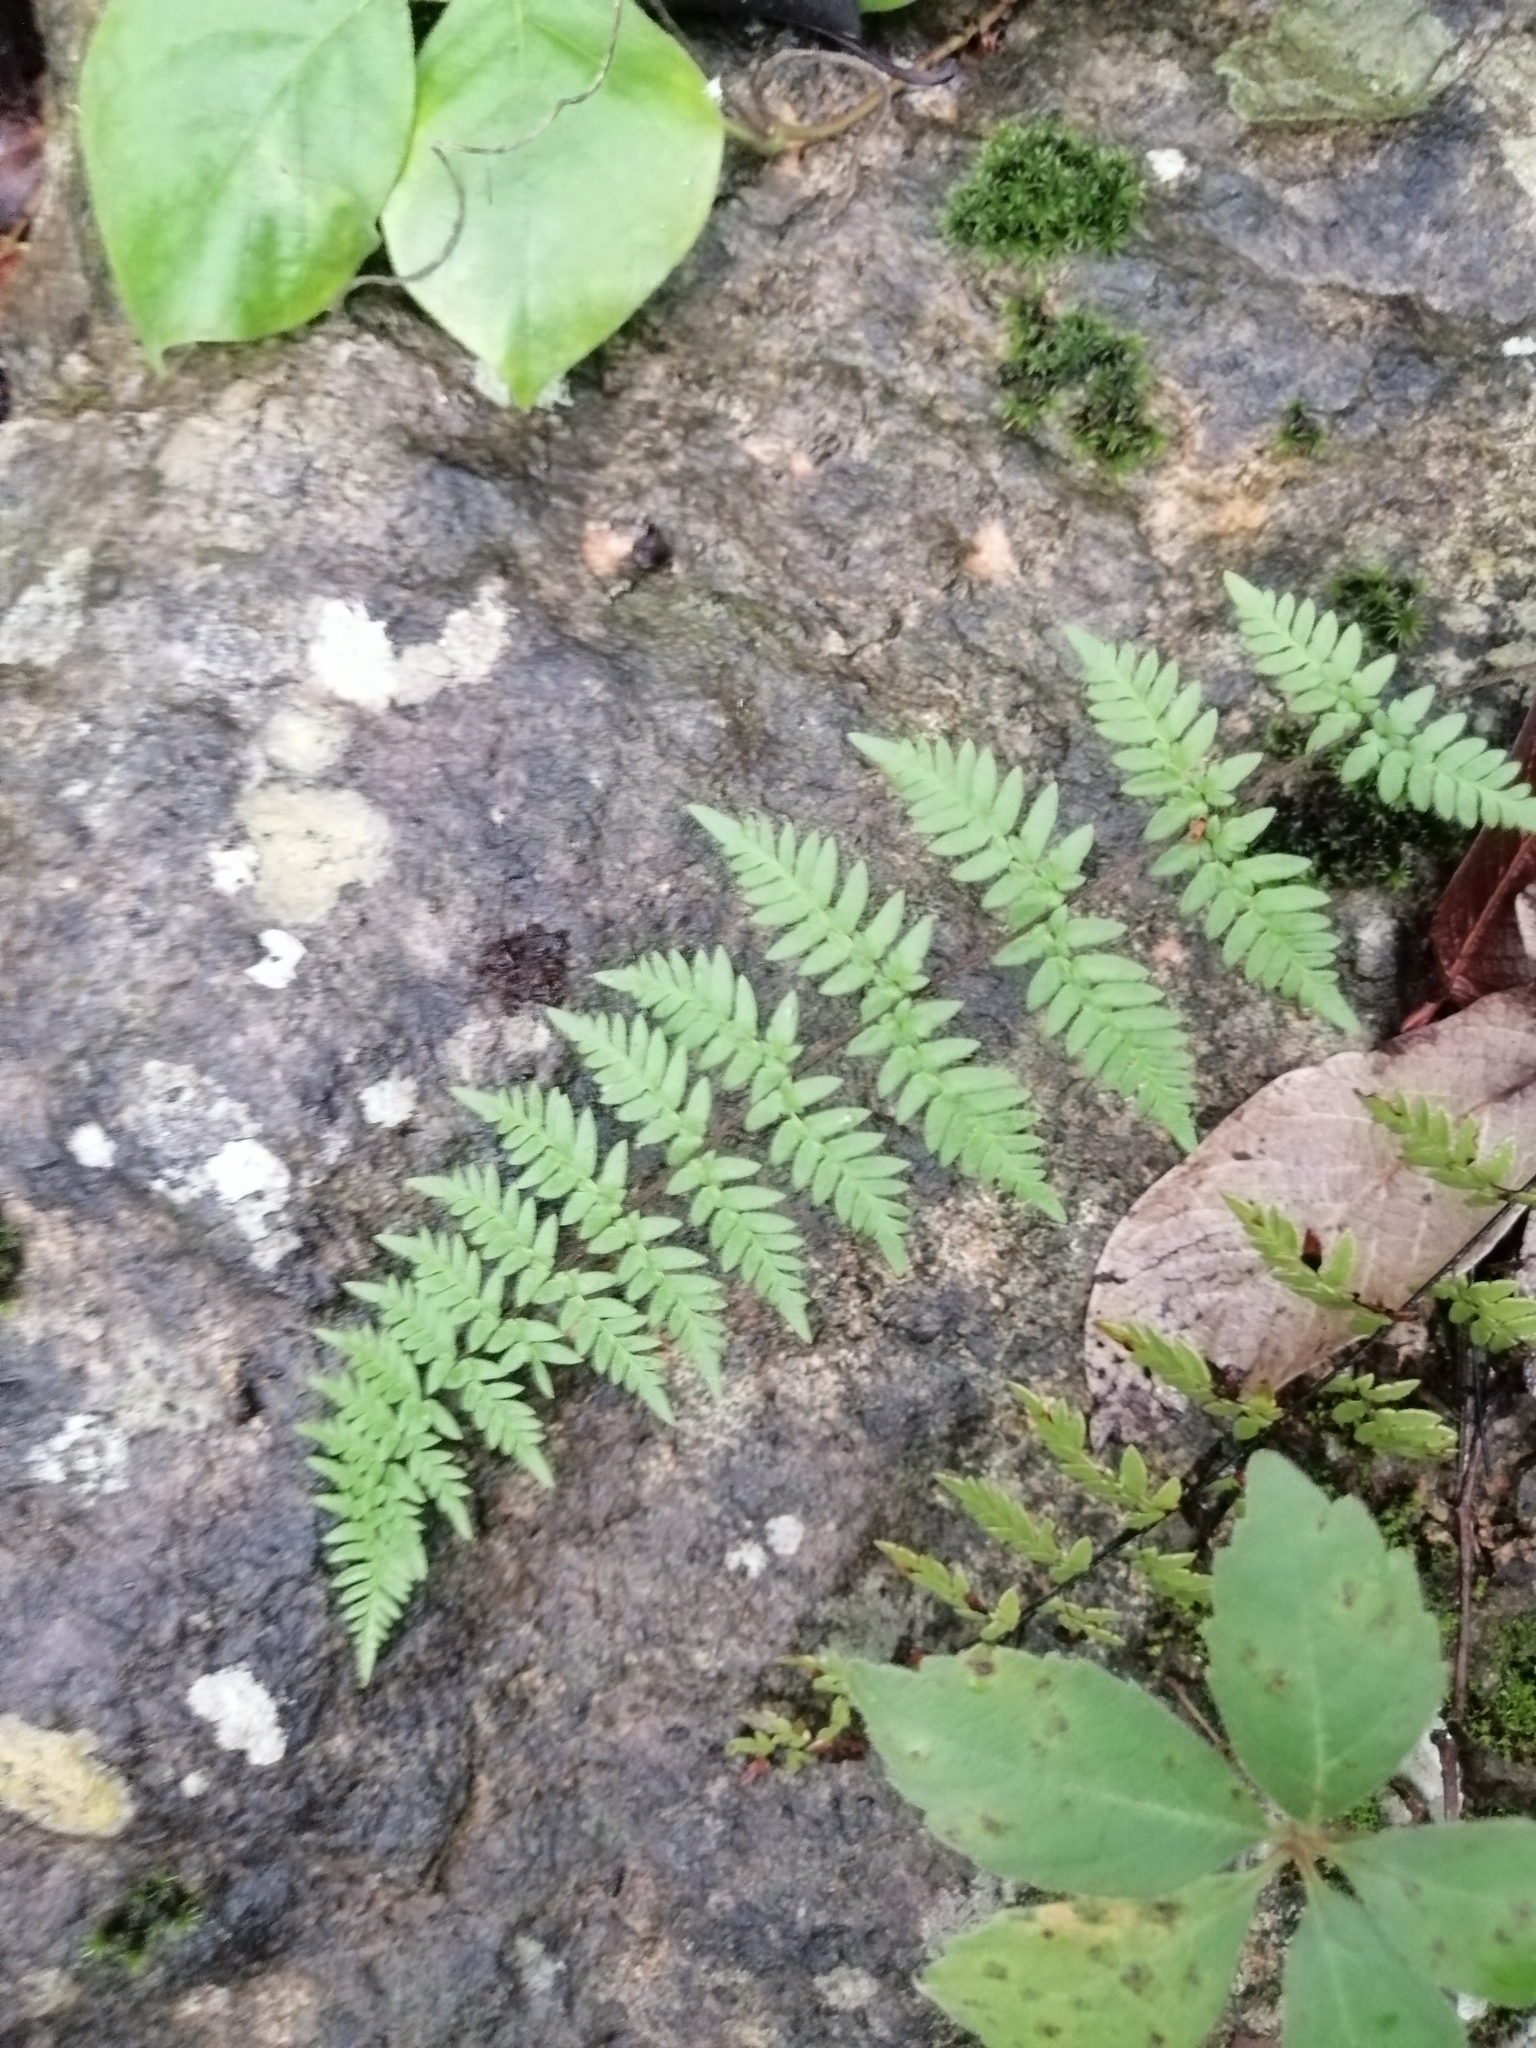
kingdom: Plantae
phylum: Tracheophyta
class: Polypodiopsida
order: Polypodiales
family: Pteridaceae
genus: Myriopteris
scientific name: Myriopteris alabamensis
